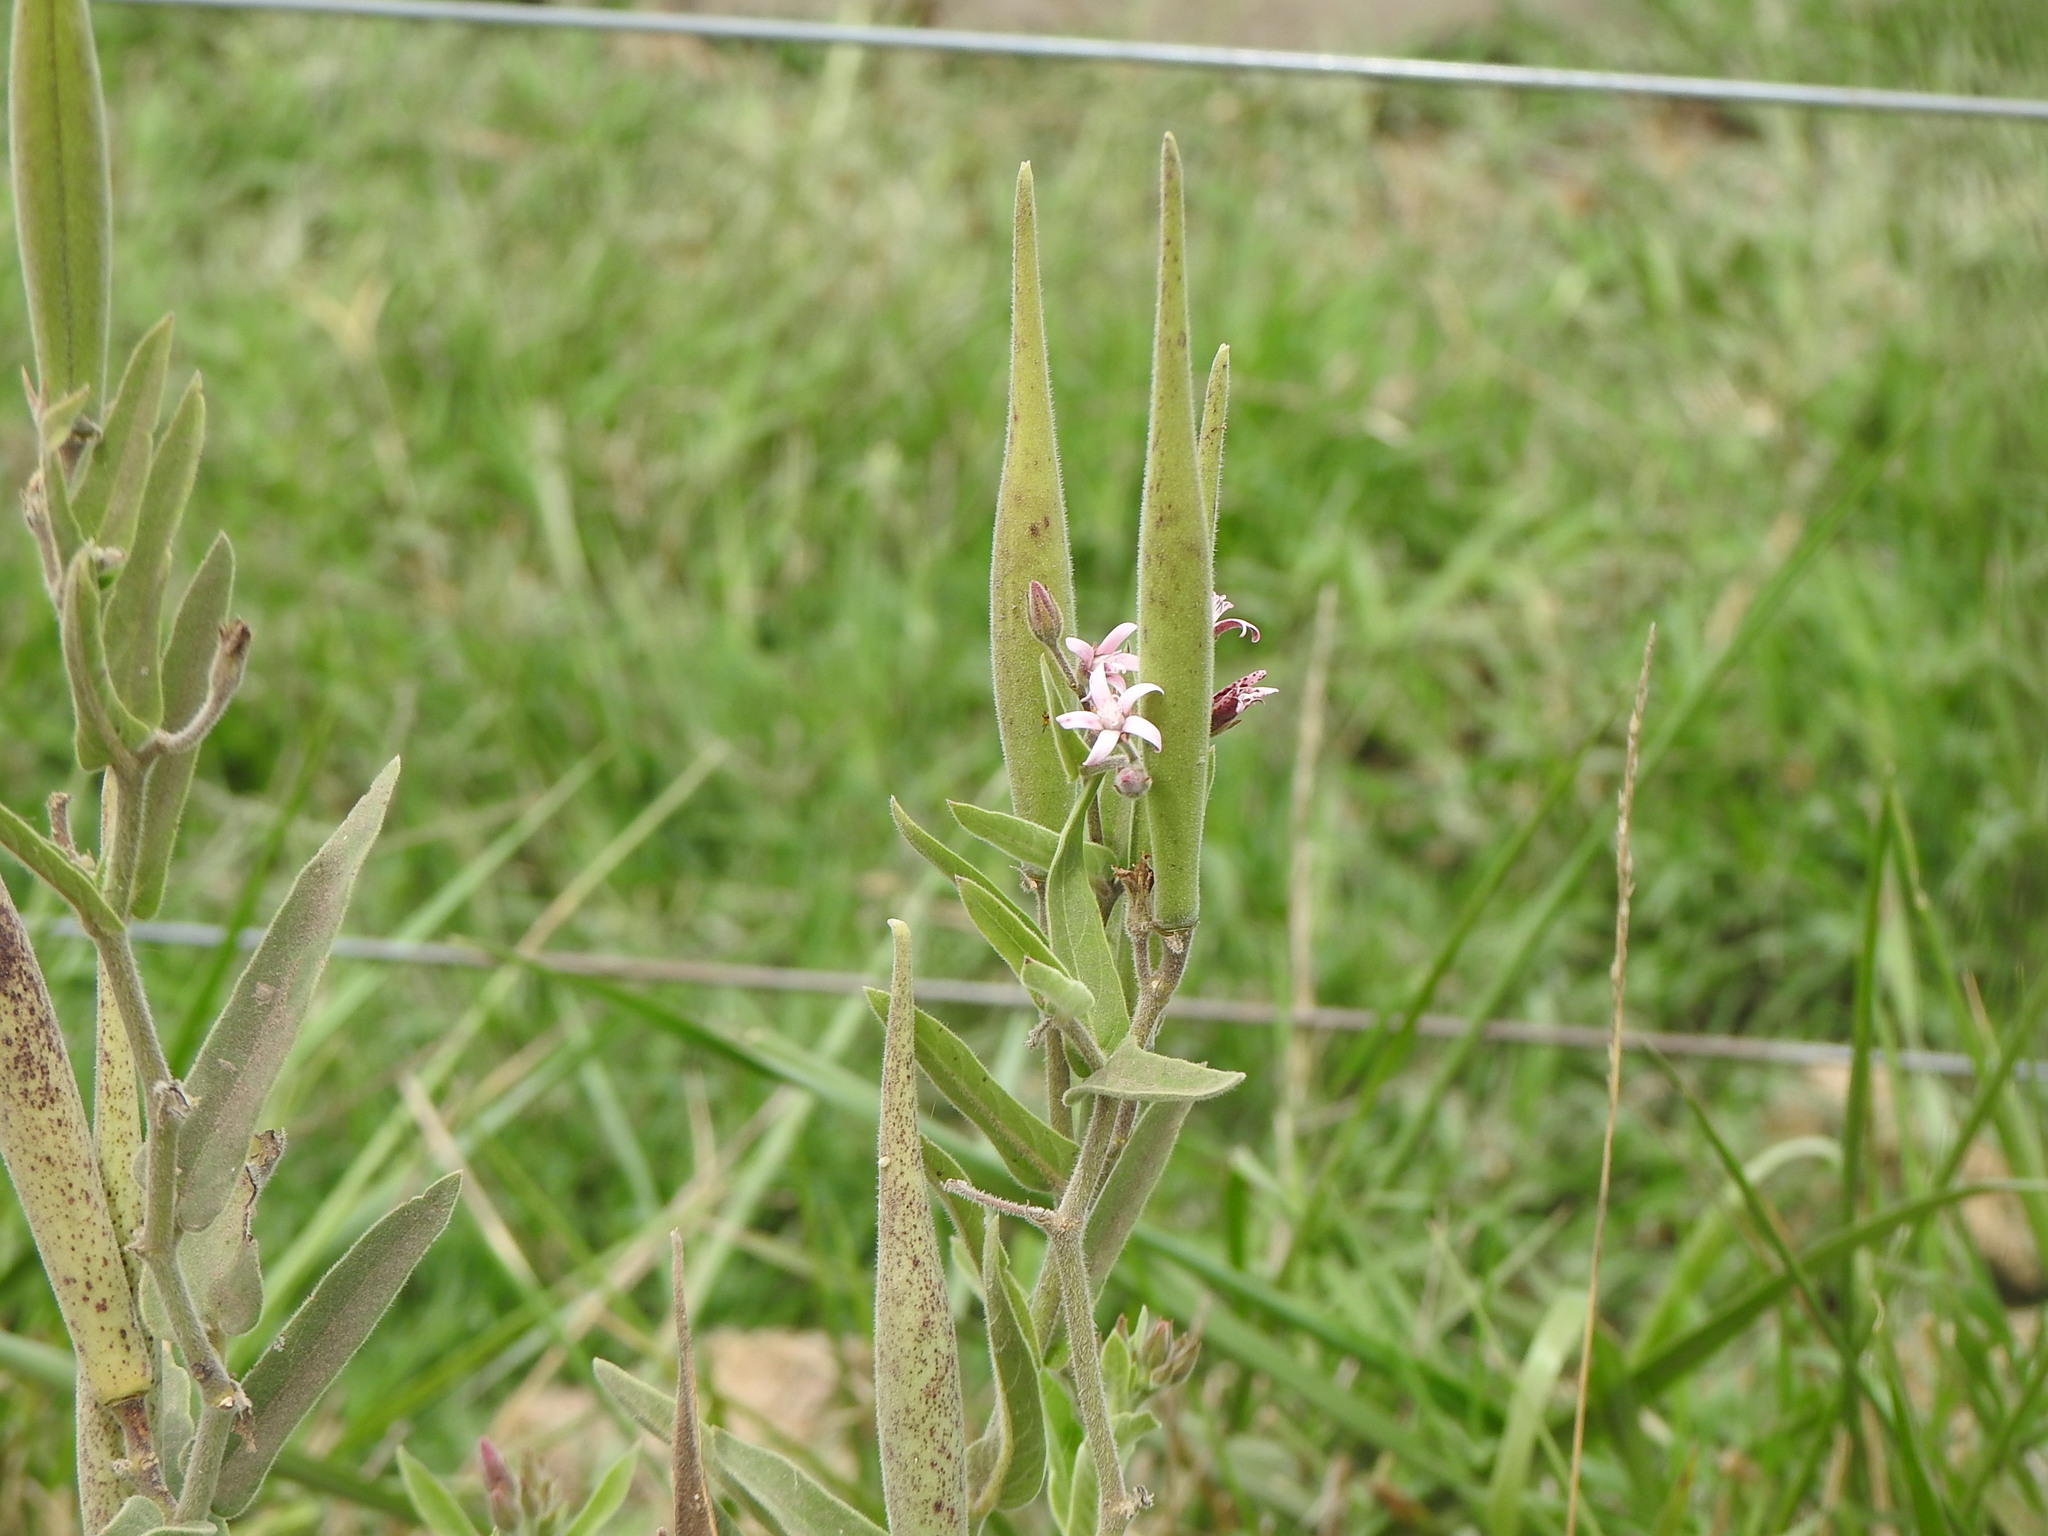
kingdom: Plantae
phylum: Tracheophyta
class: Magnoliopsida
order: Gentianales
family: Apocynaceae
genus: Oxypetalum
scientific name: Oxypetalum solanoides
